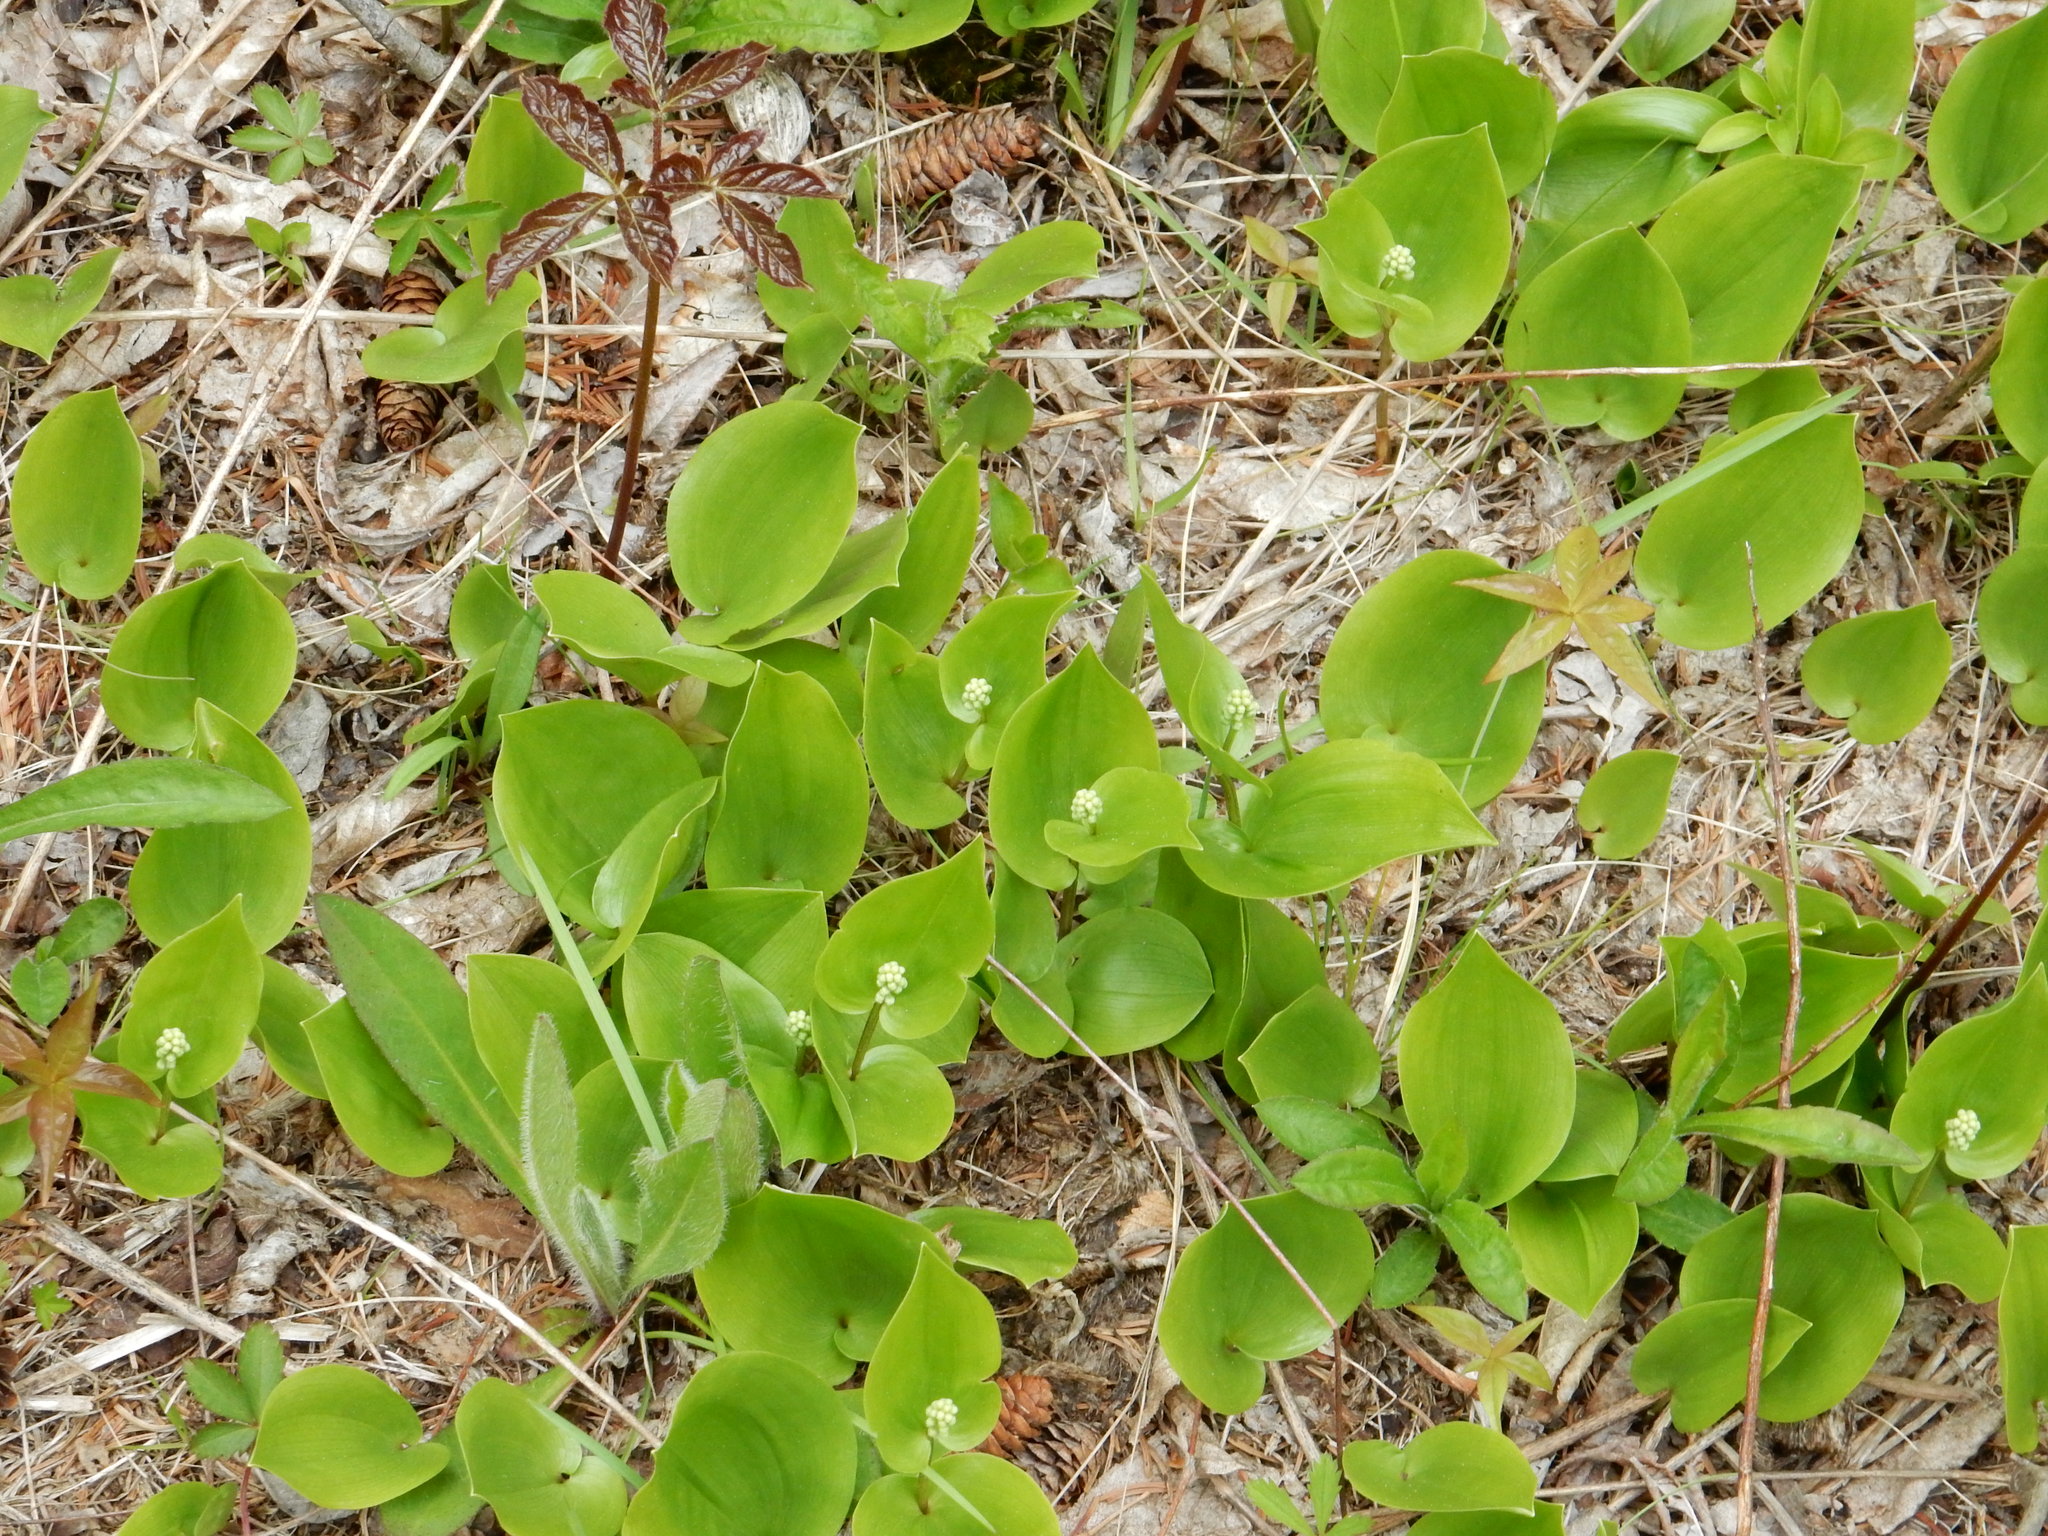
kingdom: Plantae
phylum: Tracheophyta
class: Liliopsida
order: Asparagales
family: Asparagaceae
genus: Maianthemum
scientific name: Maianthemum canadense
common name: False lily-of-the-valley
